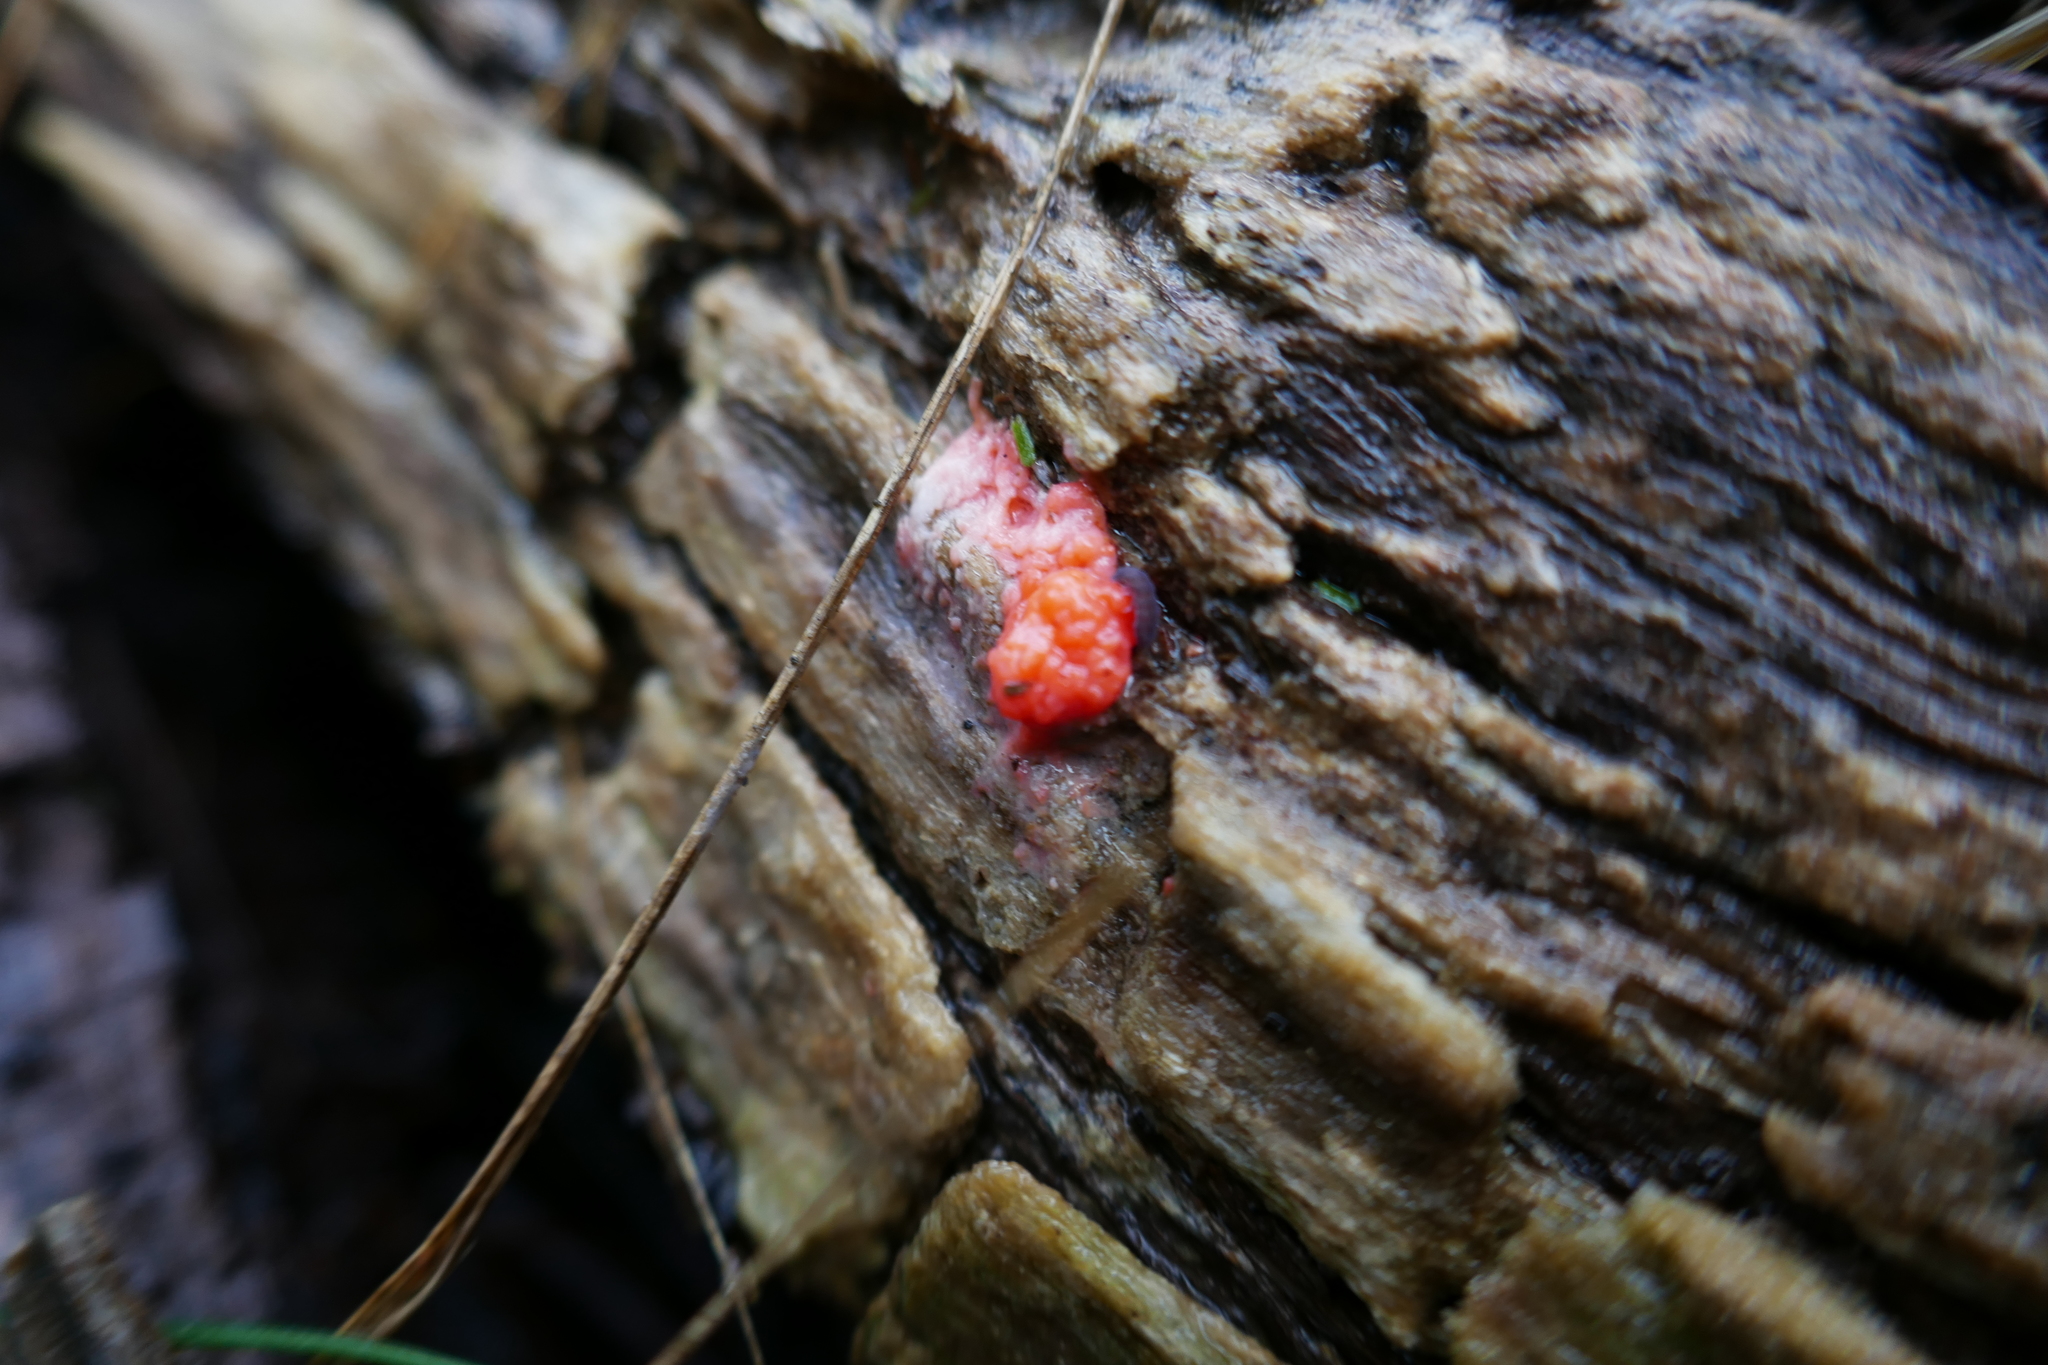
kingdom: Protozoa
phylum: Mycetozoa
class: Myxomycetes
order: Cribrariales
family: Tubiferaceae
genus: Tubifera
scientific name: Tubifera ferruginosa
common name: Red raspberry slime mold
